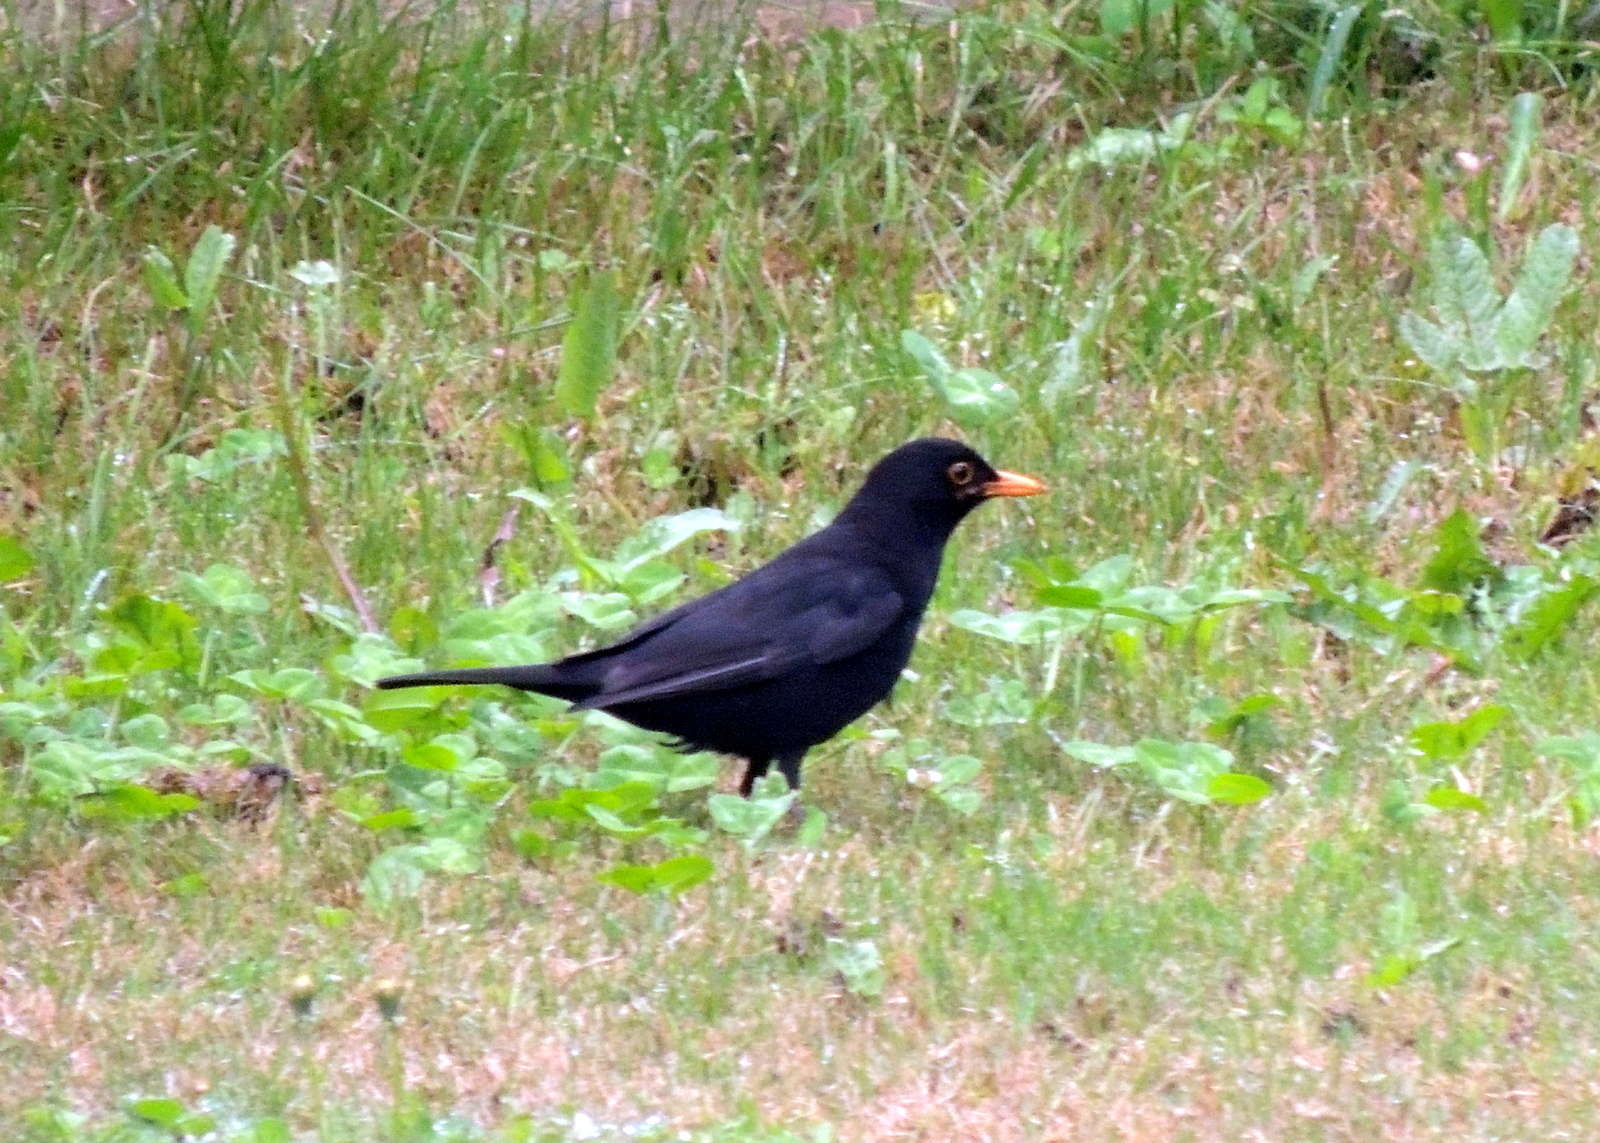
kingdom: Animalia
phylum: Chordata
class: Aves
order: Passeriformes
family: Turdidae
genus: Turdus
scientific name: Turdus merula
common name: Common blackbird
